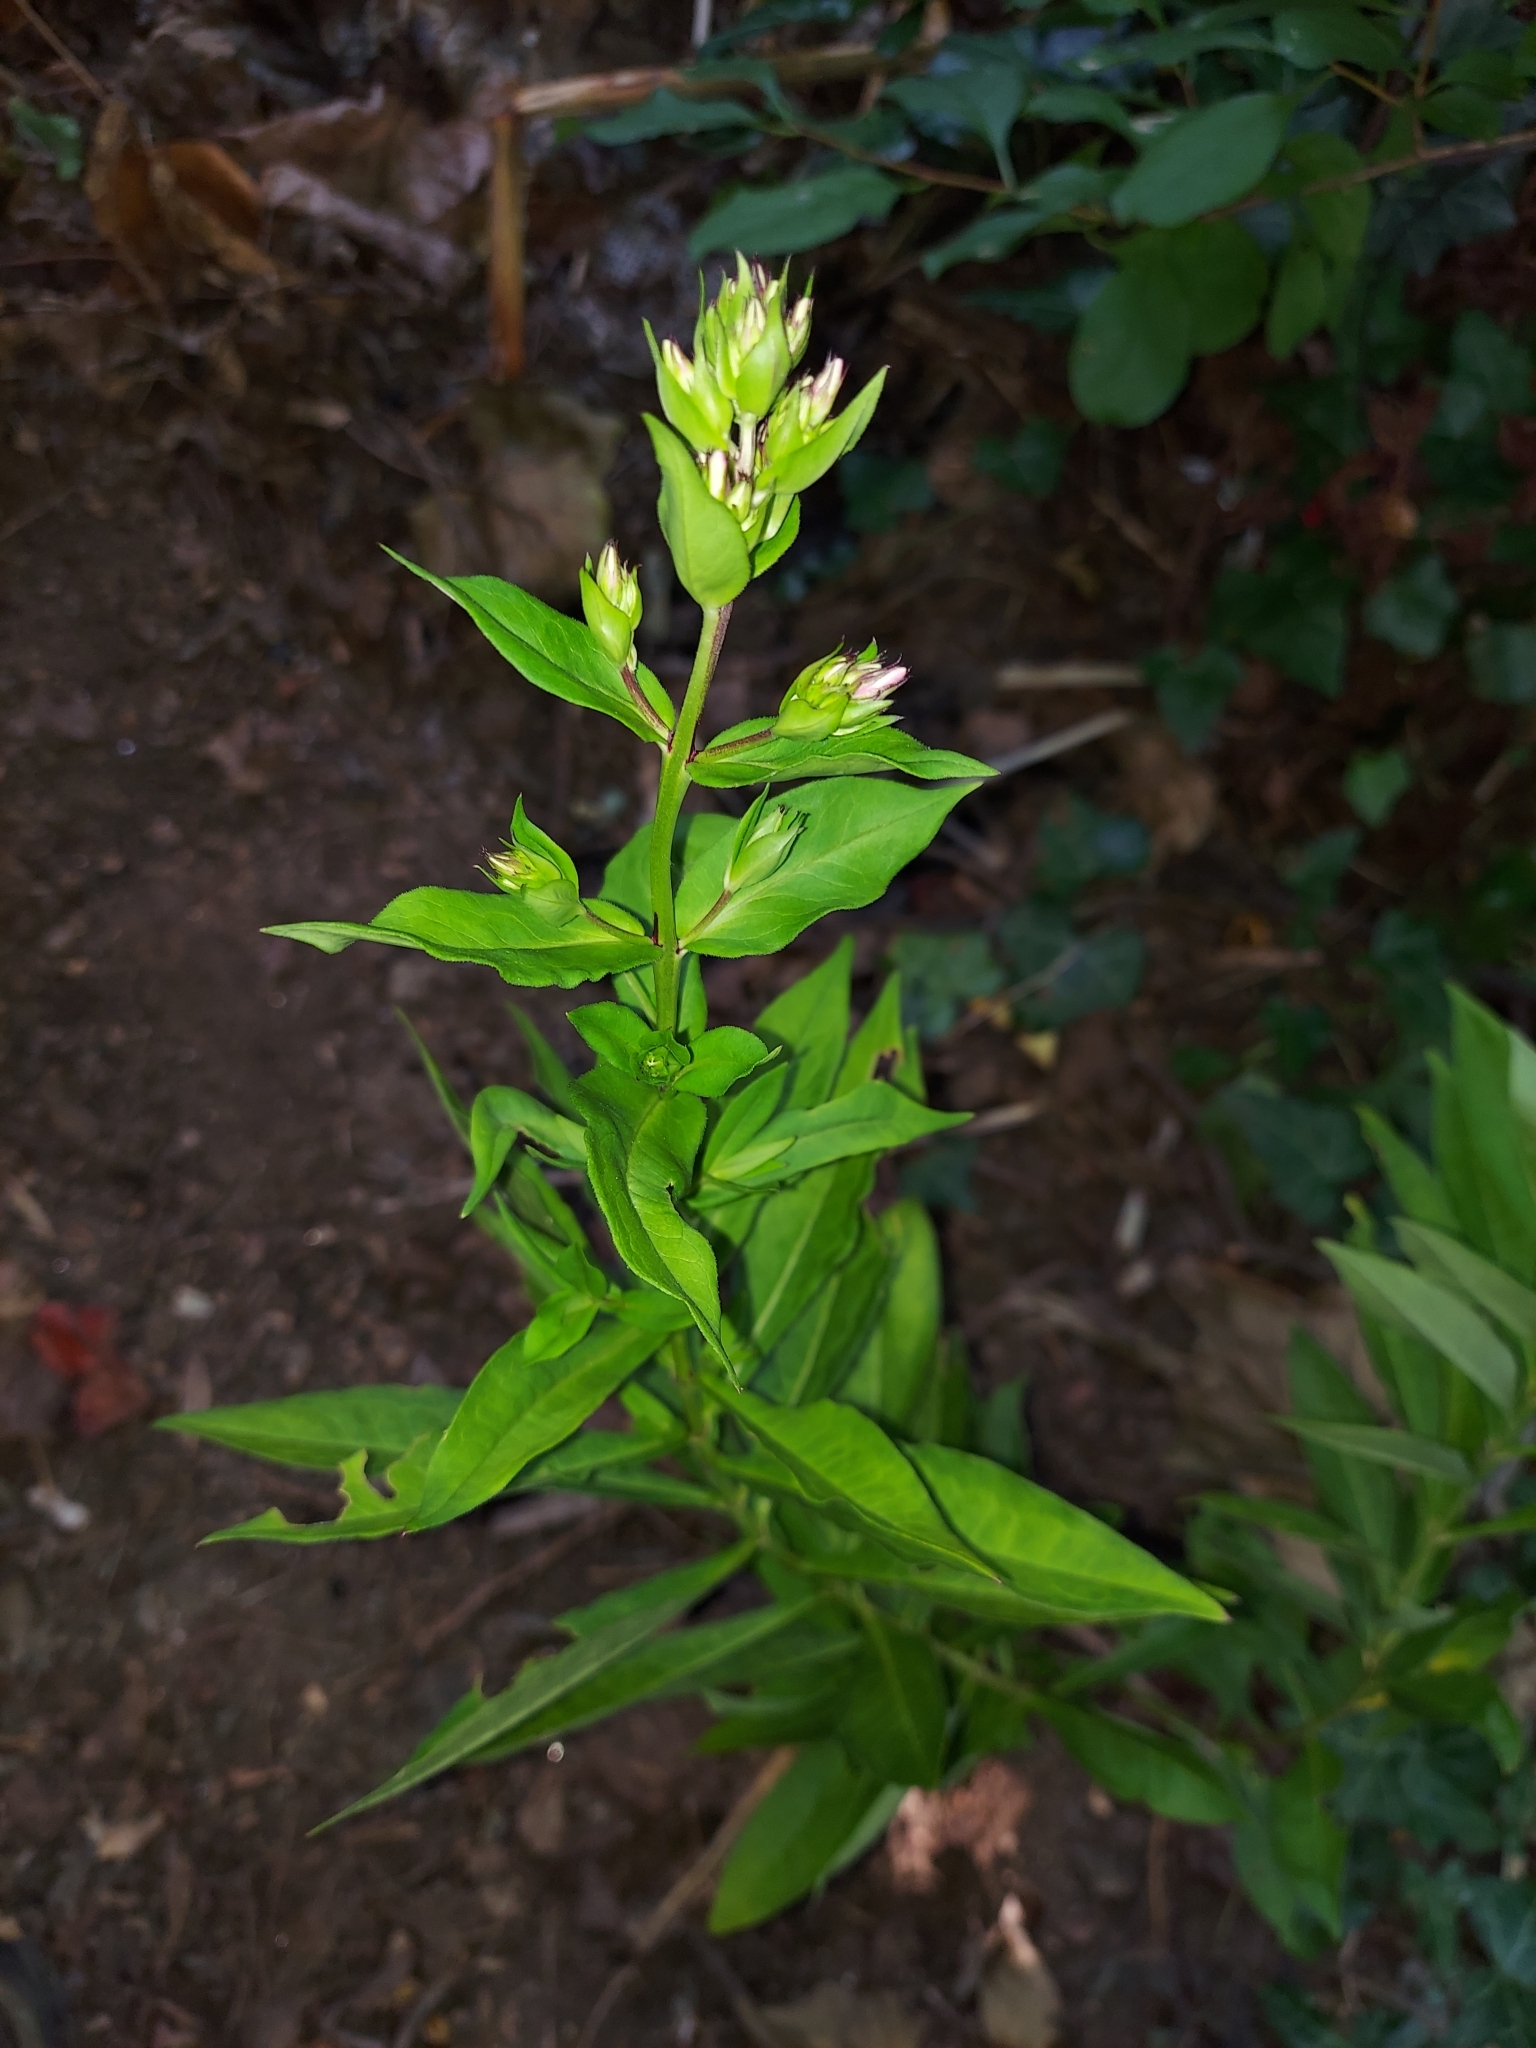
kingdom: Plantae
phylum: Tracheophyta
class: Magnoliopsida
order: Ericales
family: Polemoniaceae
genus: Phlox
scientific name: Phlox paniculata
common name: Fall phlox
